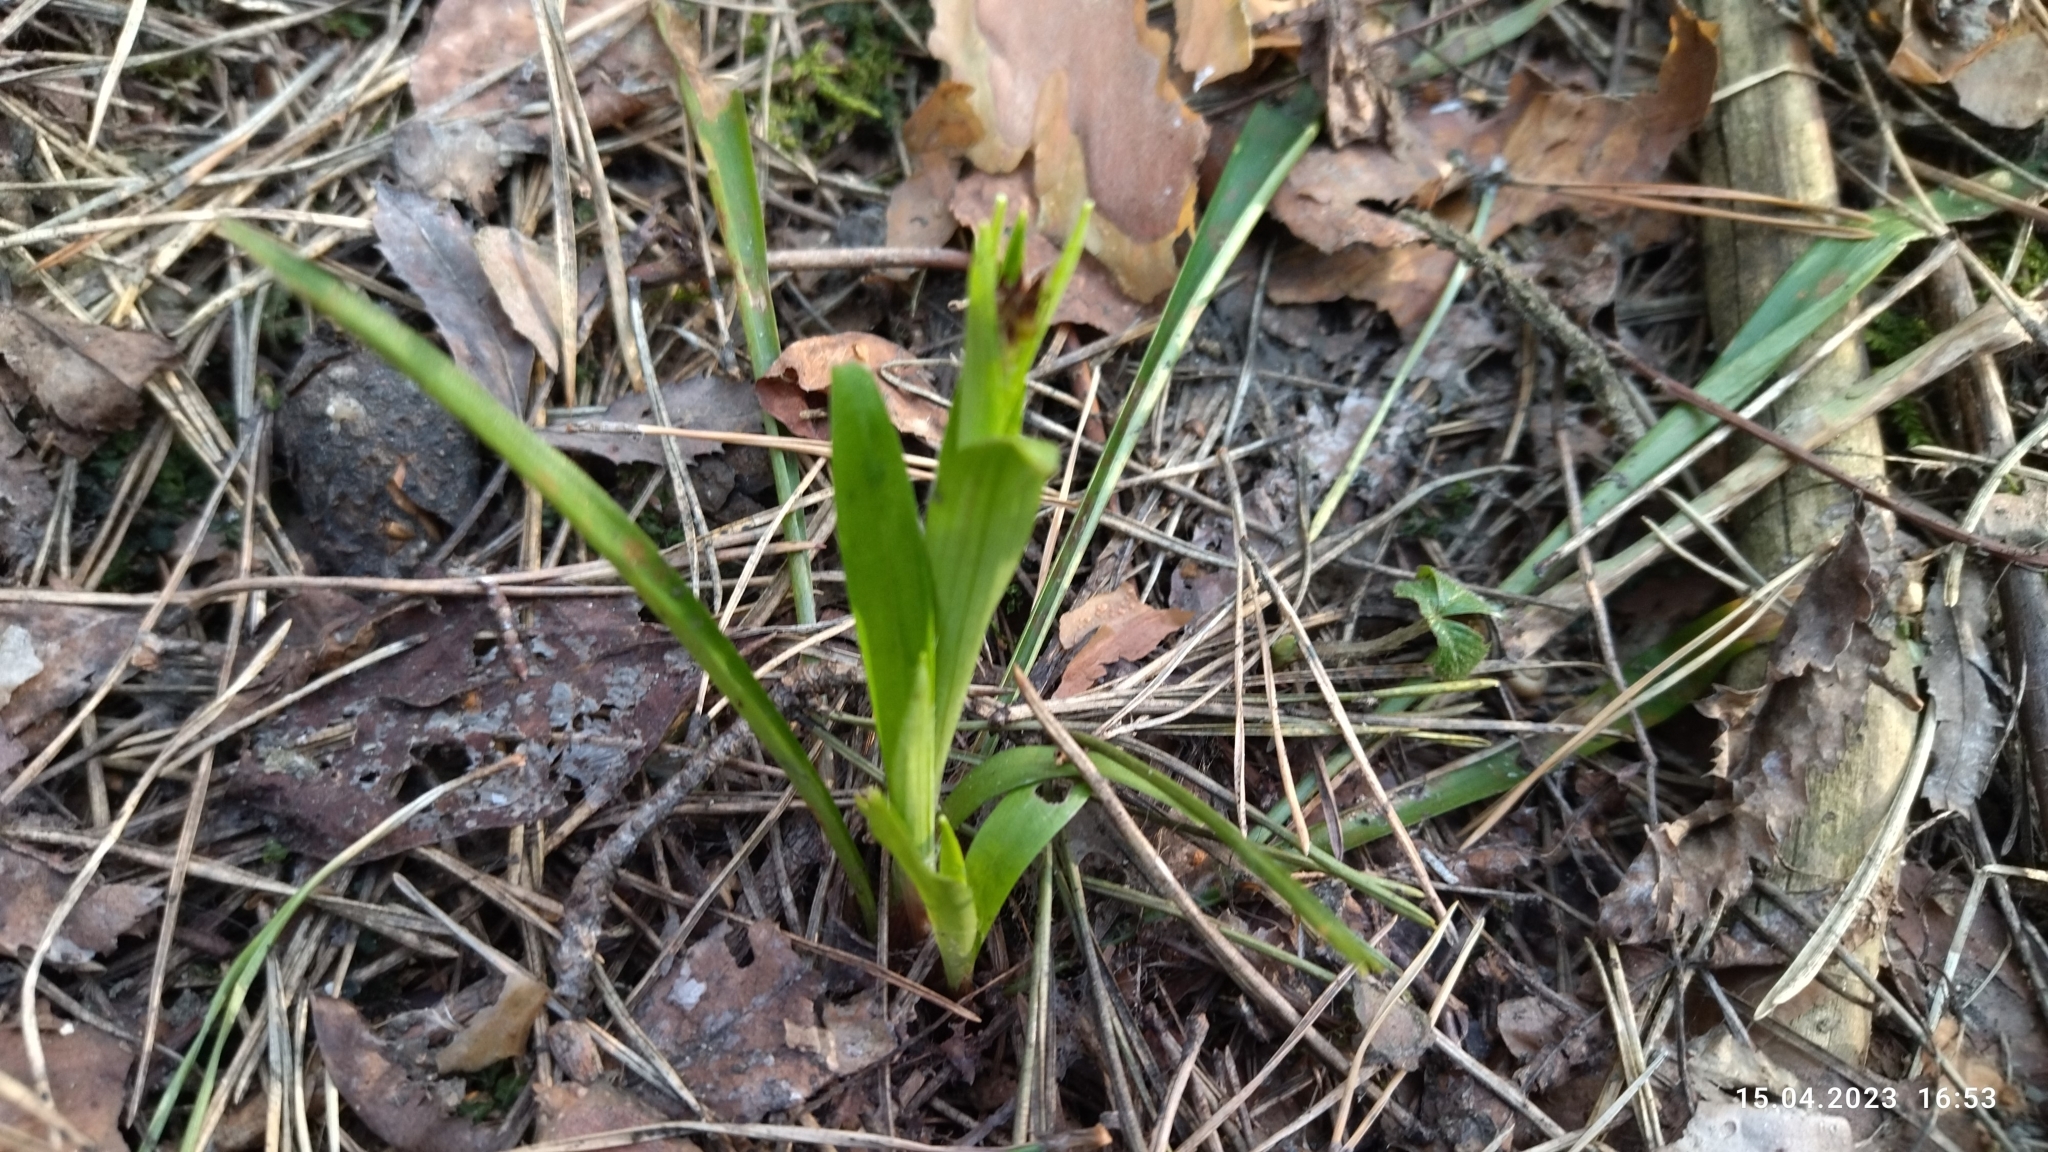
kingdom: Plantae
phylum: Tracheophyta
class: Liliopsida
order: Poales
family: Juncaceae
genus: Luzula
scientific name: Luzula pilosa
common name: Hairy wood-rush
